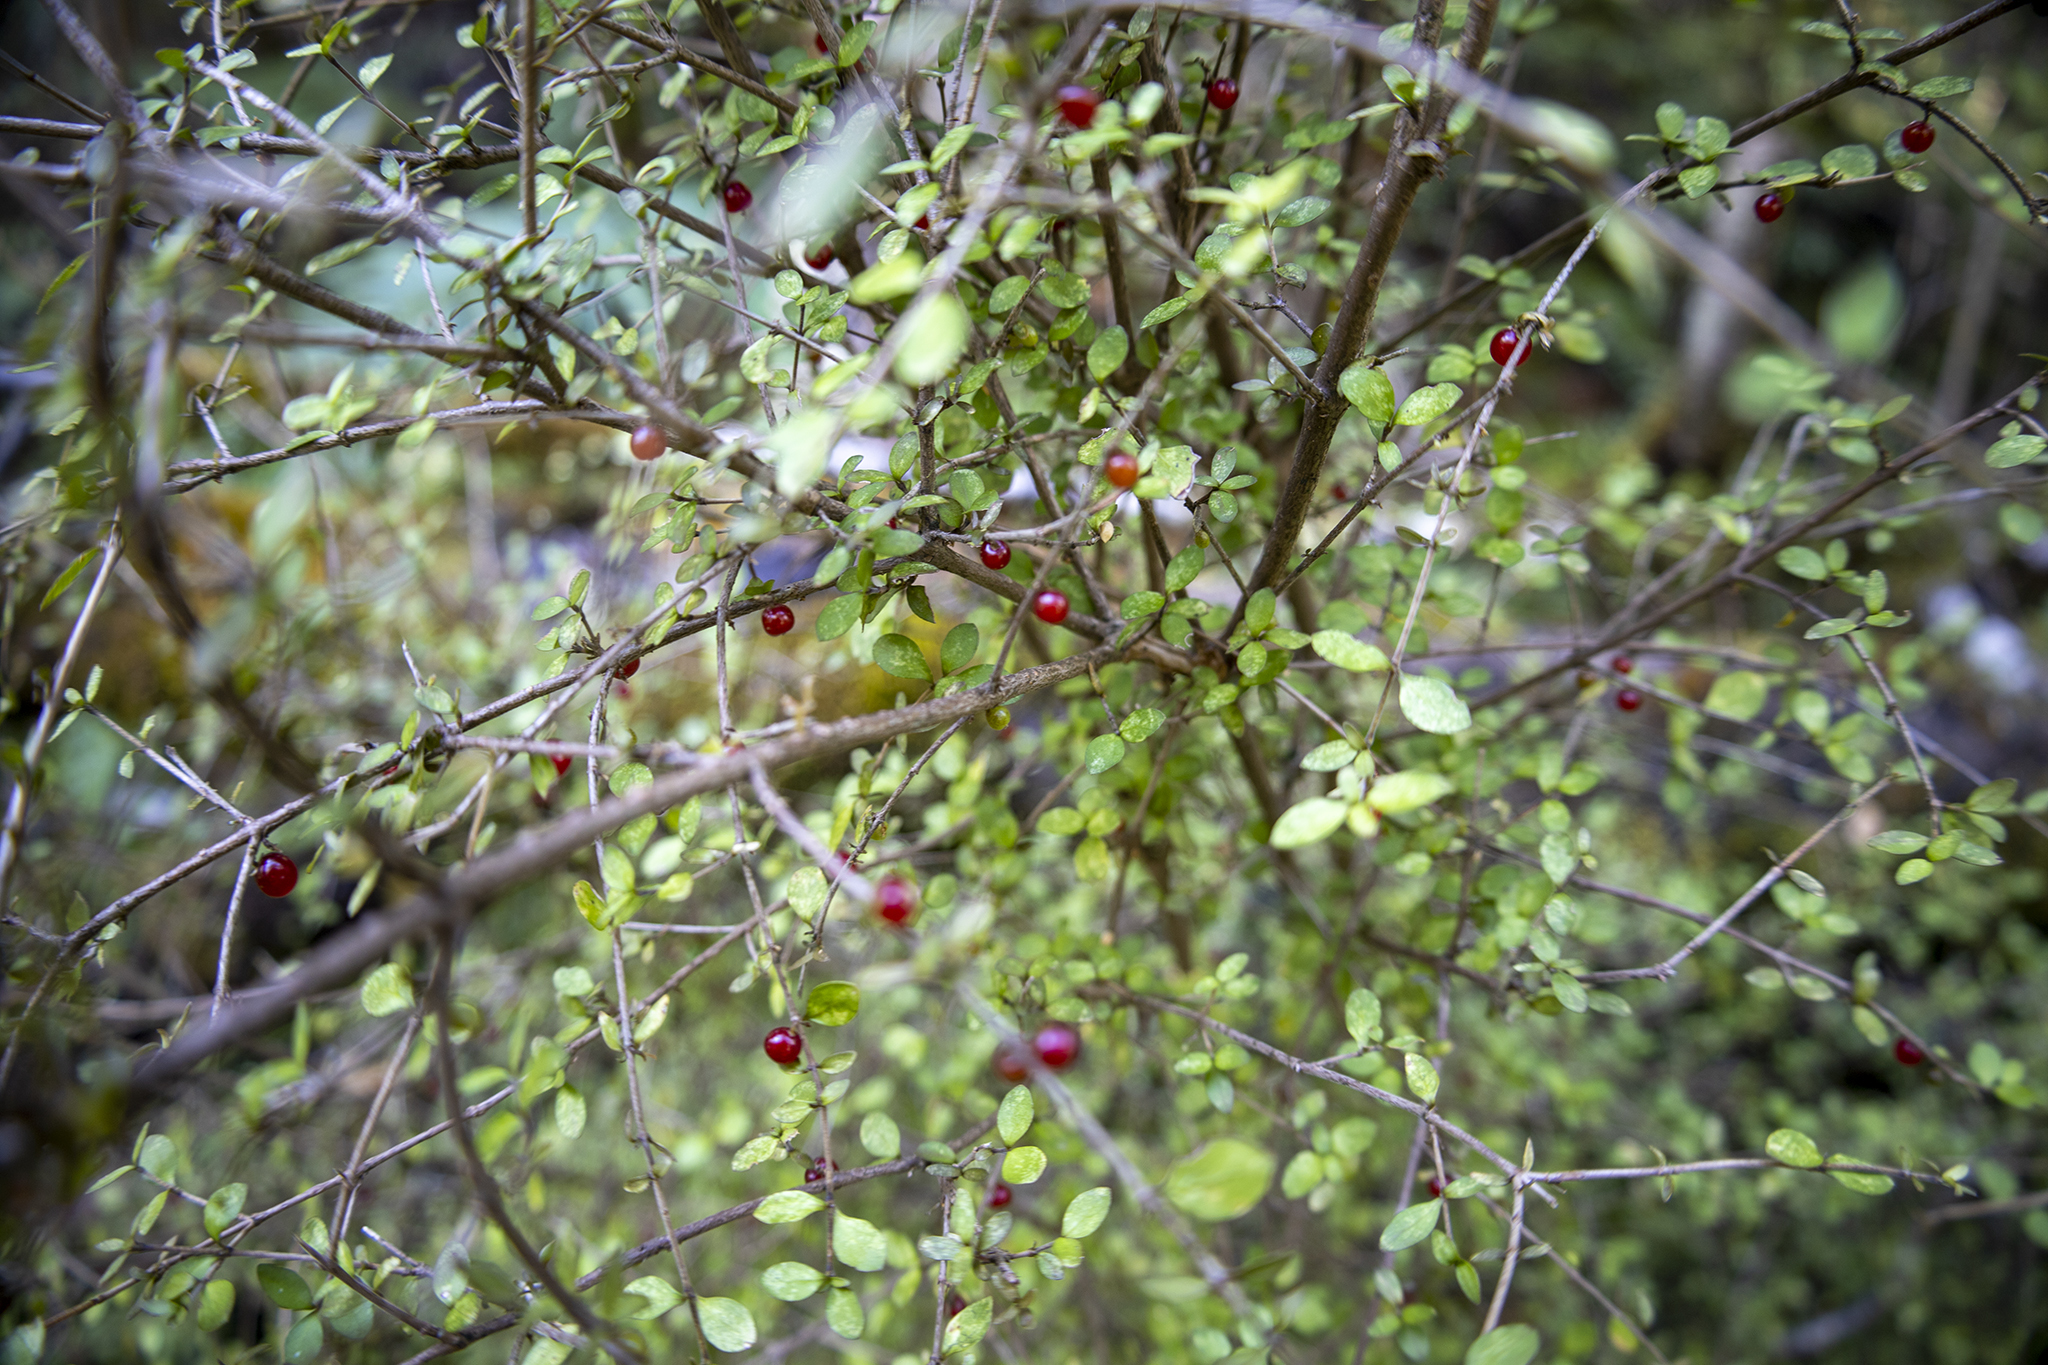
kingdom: Plantae
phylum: Tracheophyta
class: Magnoliopsida
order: Gentianales
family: Rubiaceae
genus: Coprosma
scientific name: Coprosma rhamnoides
